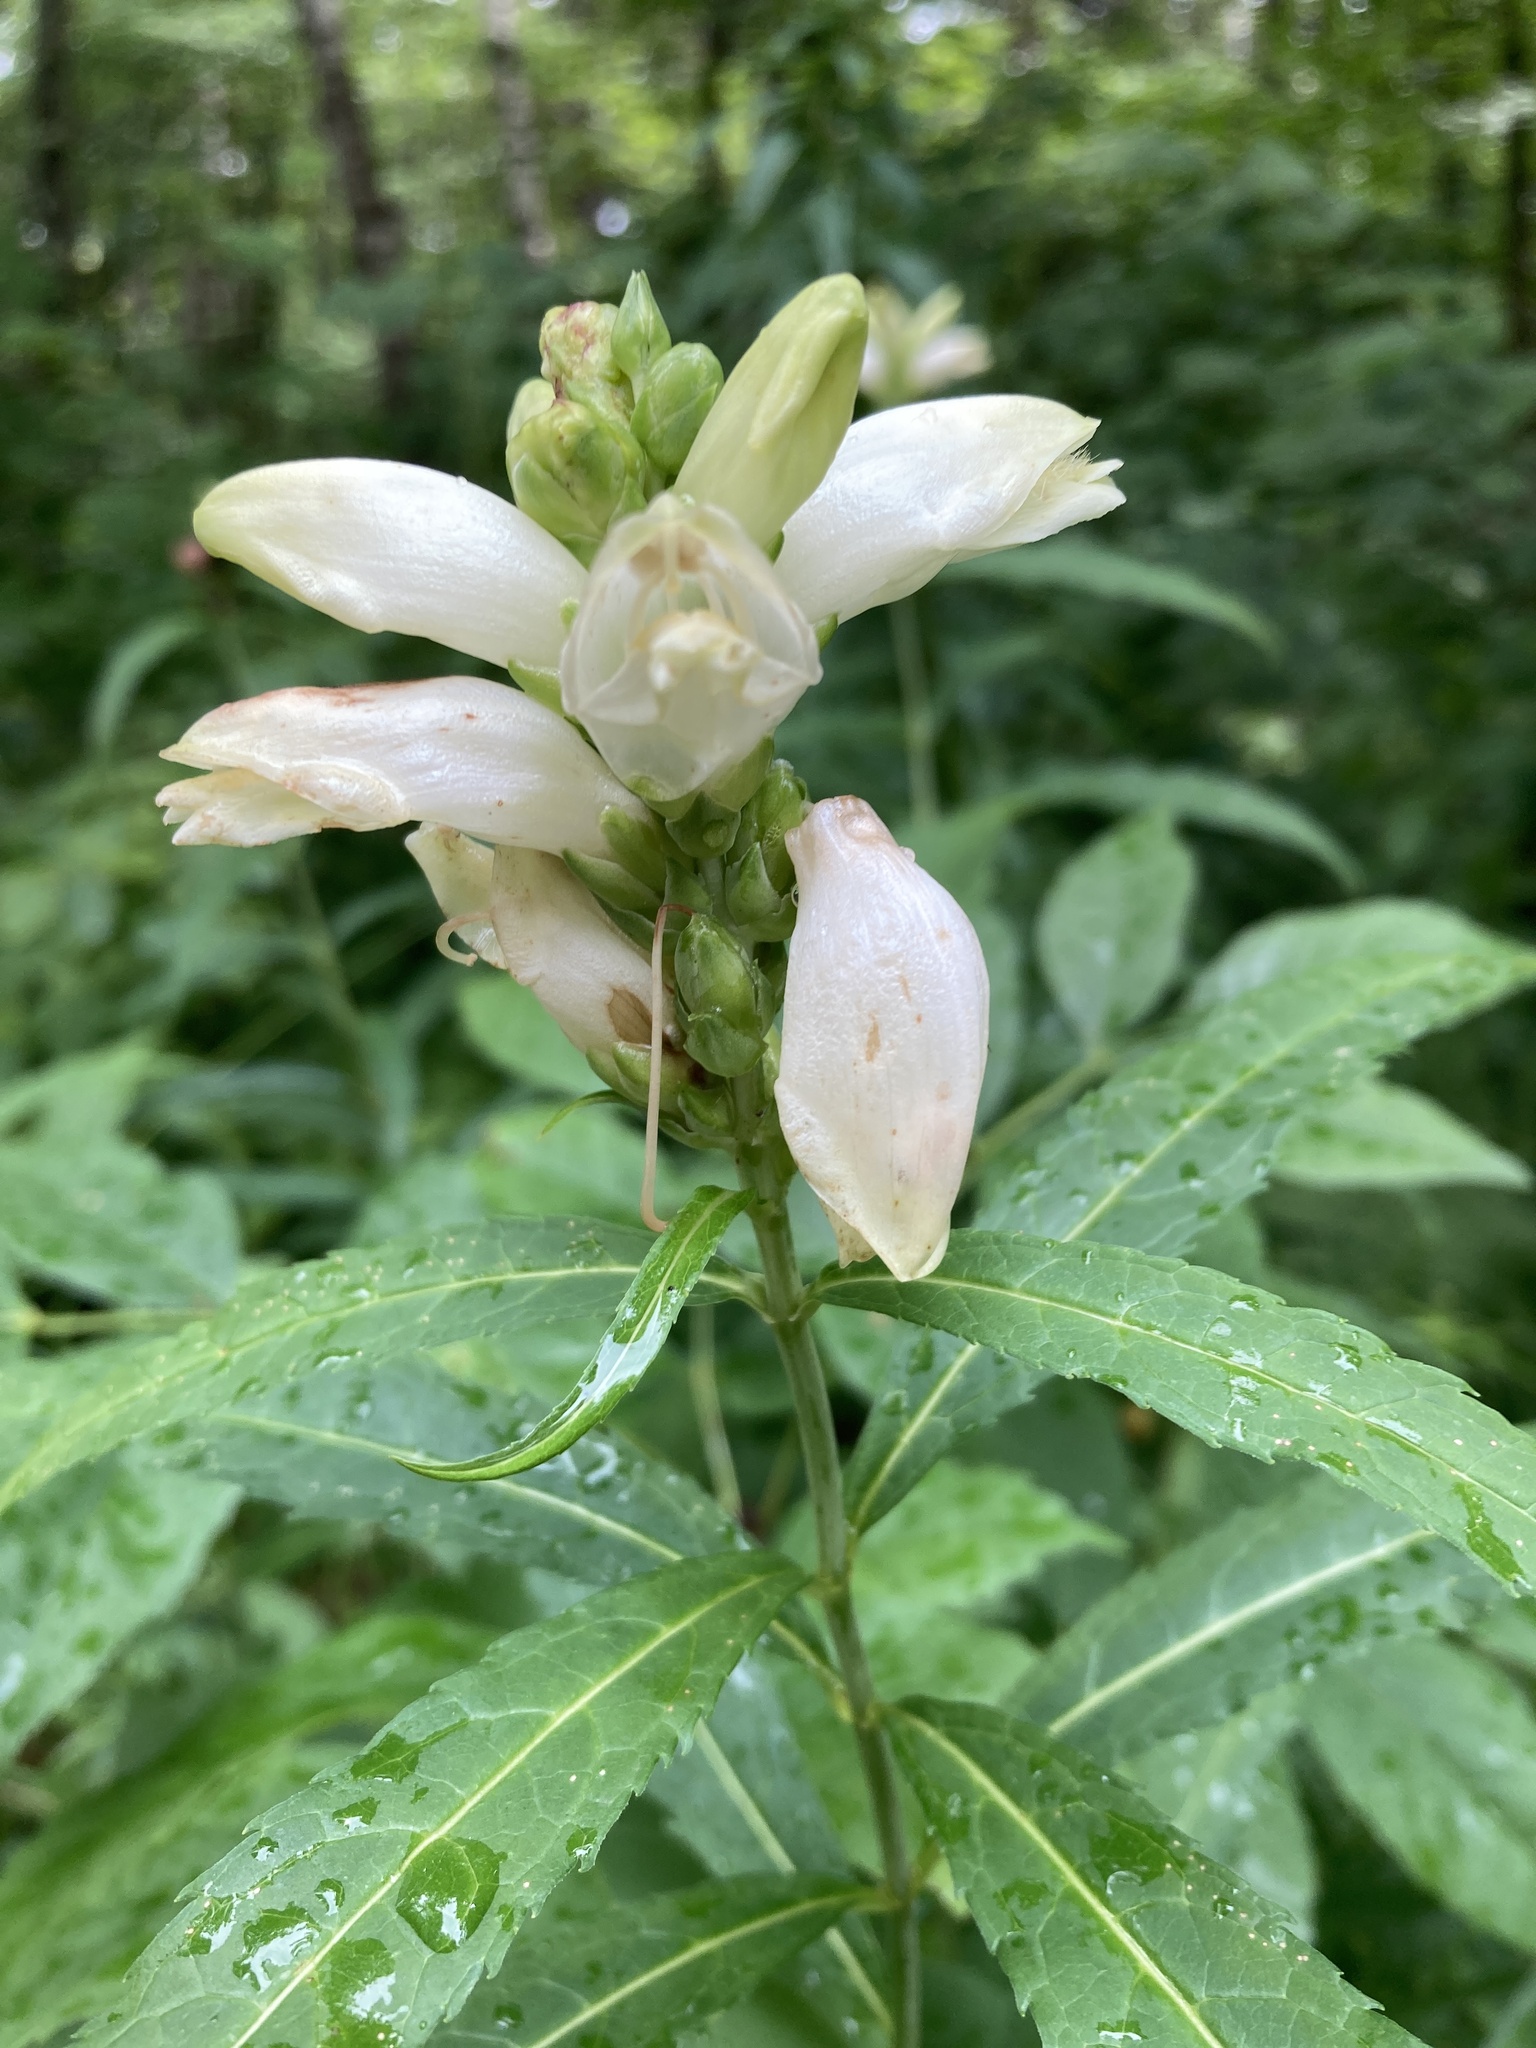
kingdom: Plantae
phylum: Tracheophyta
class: Magnoliopsida
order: Lamiales
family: Plantaginaceae
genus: Chelone
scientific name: Chelone glabra
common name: Snakehead
